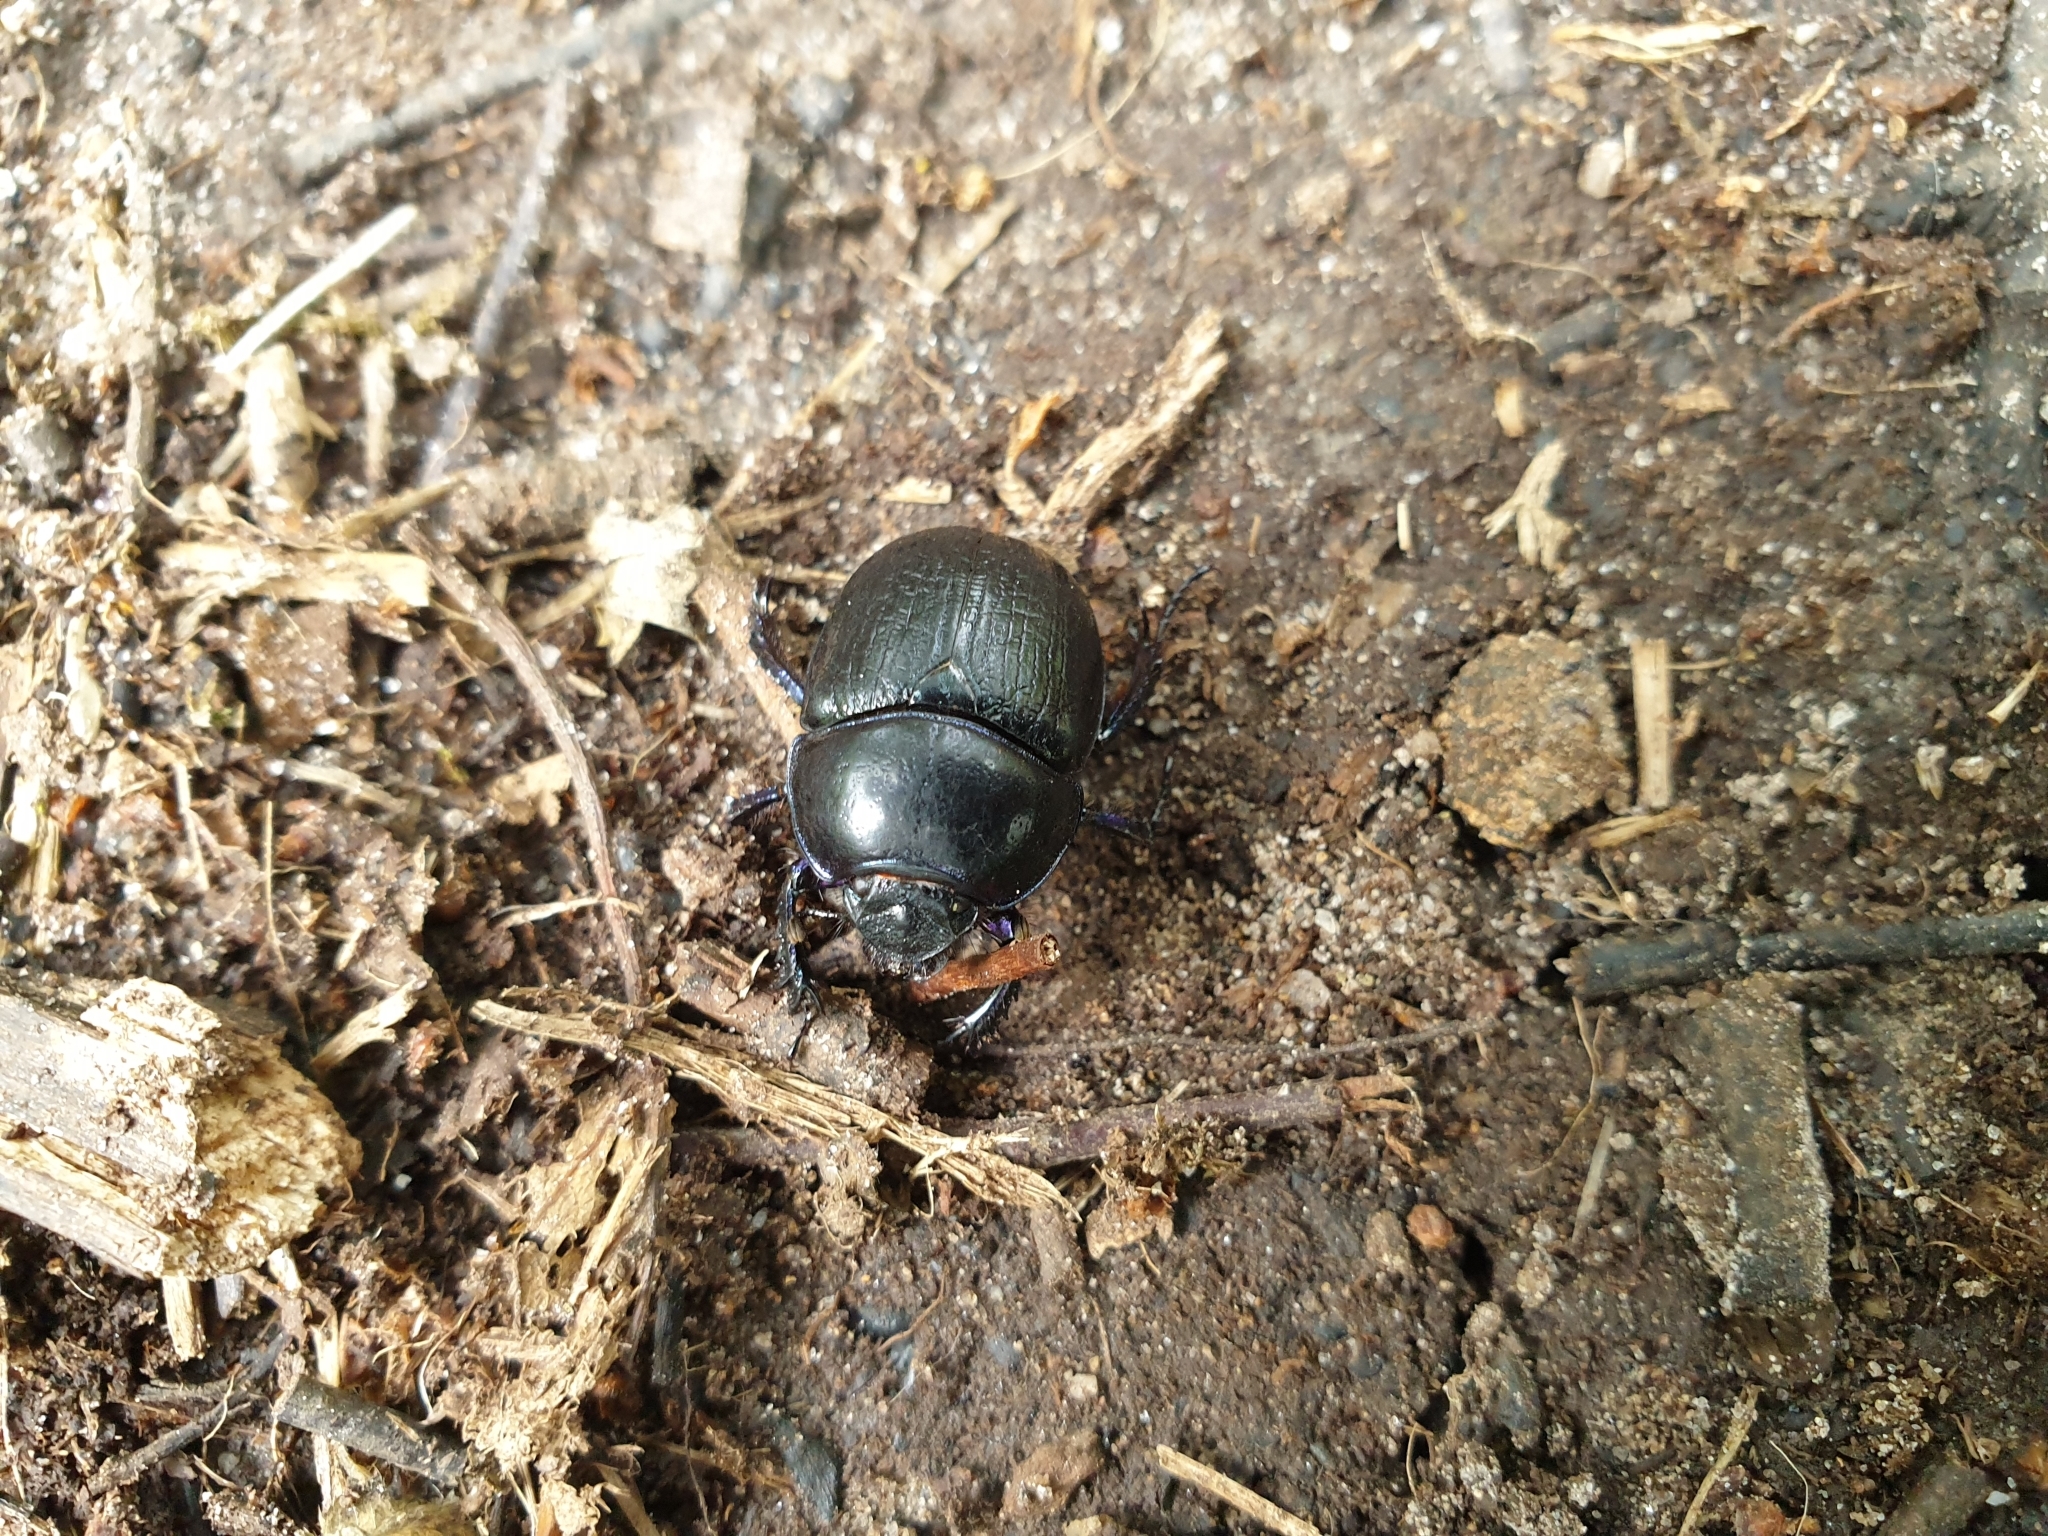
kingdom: Animalia
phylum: Arthropoda
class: Insecta
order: Coleoptera
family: Geotrupidae
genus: Anoplotrupes
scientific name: Anoplotrupes stercorosus
